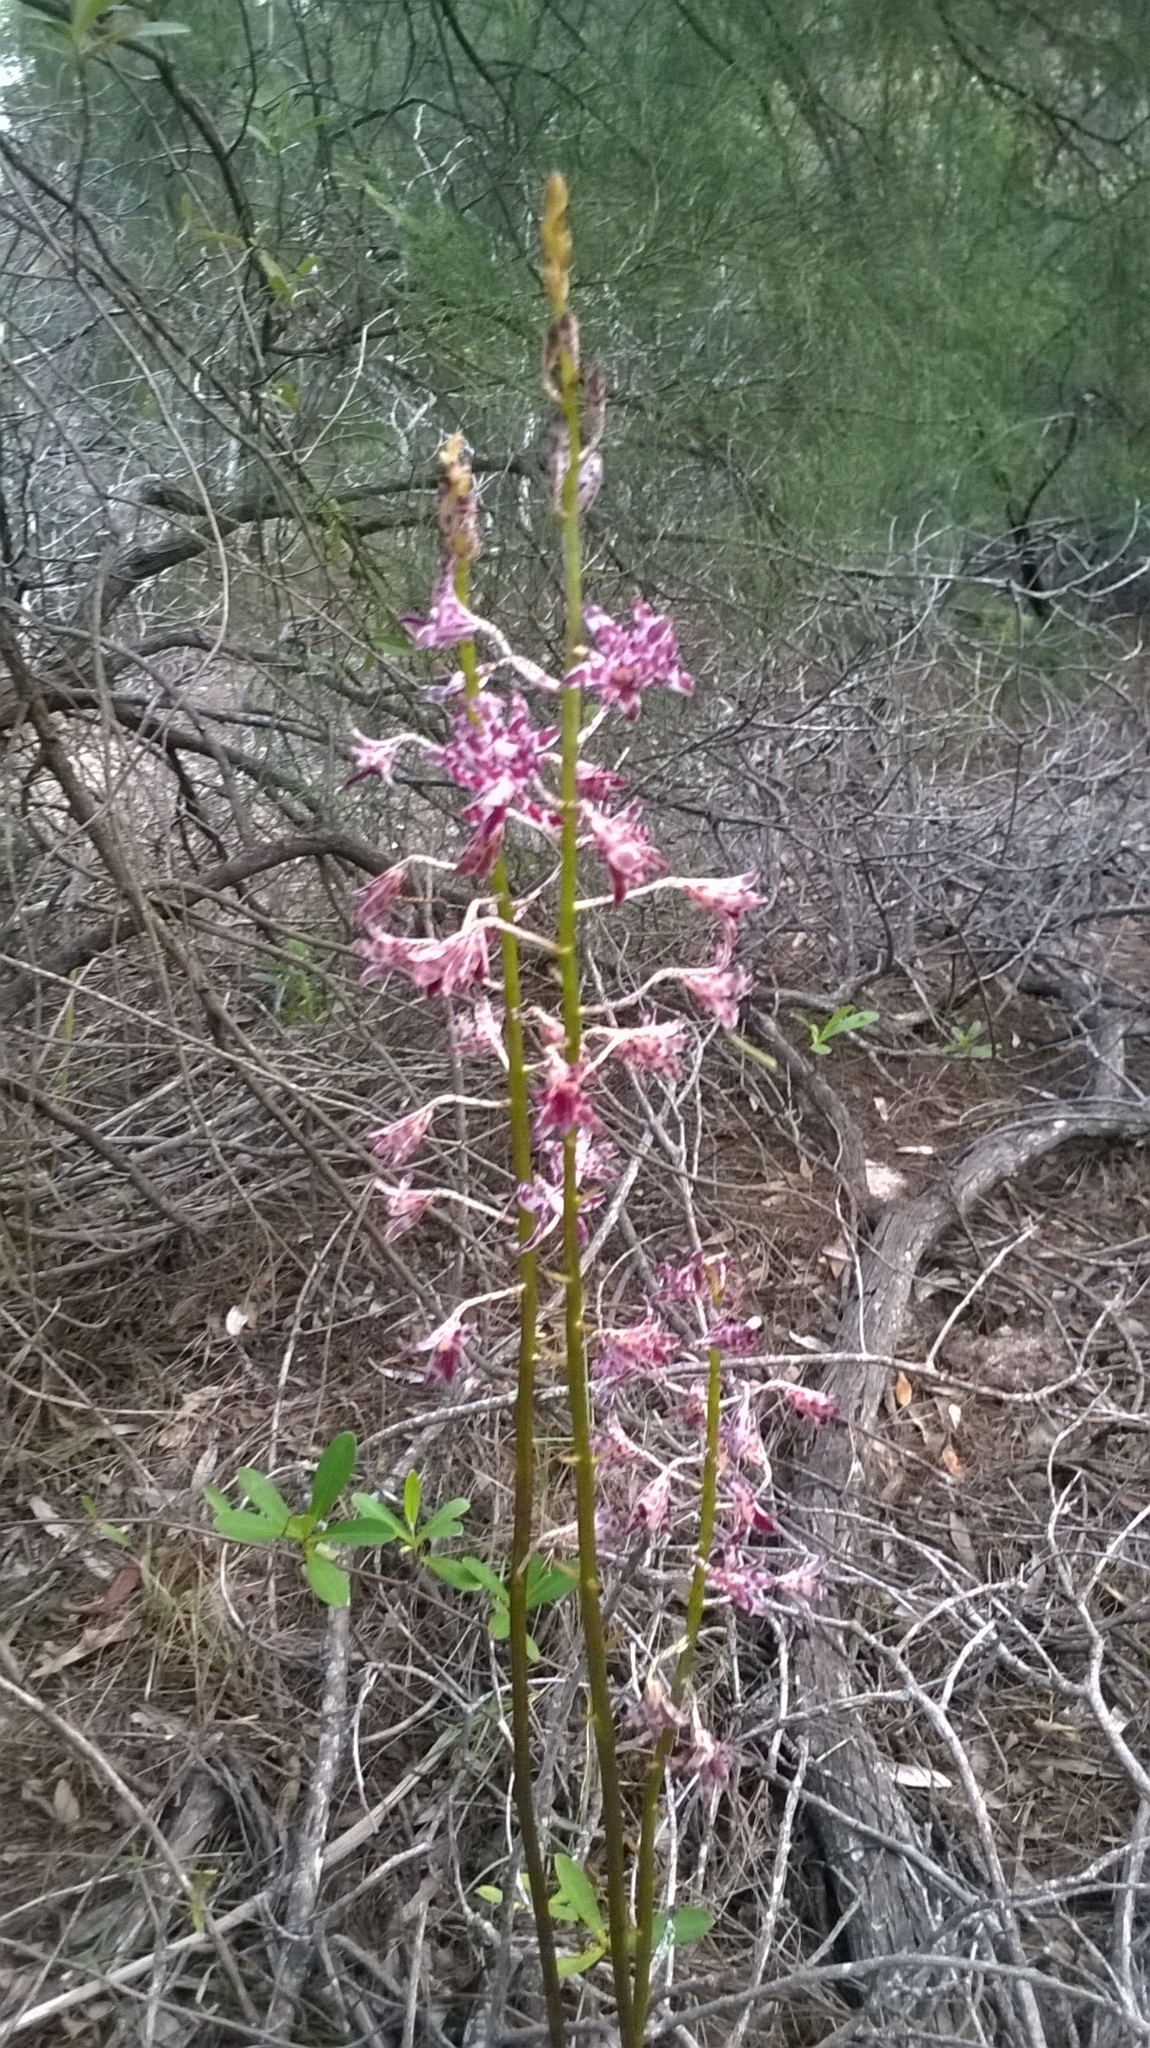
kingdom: Plantae
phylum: Tracheophyta
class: Liliopsida
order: Asparagales
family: Orchidaceae
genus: Dipodium
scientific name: Dipodium variegatum
